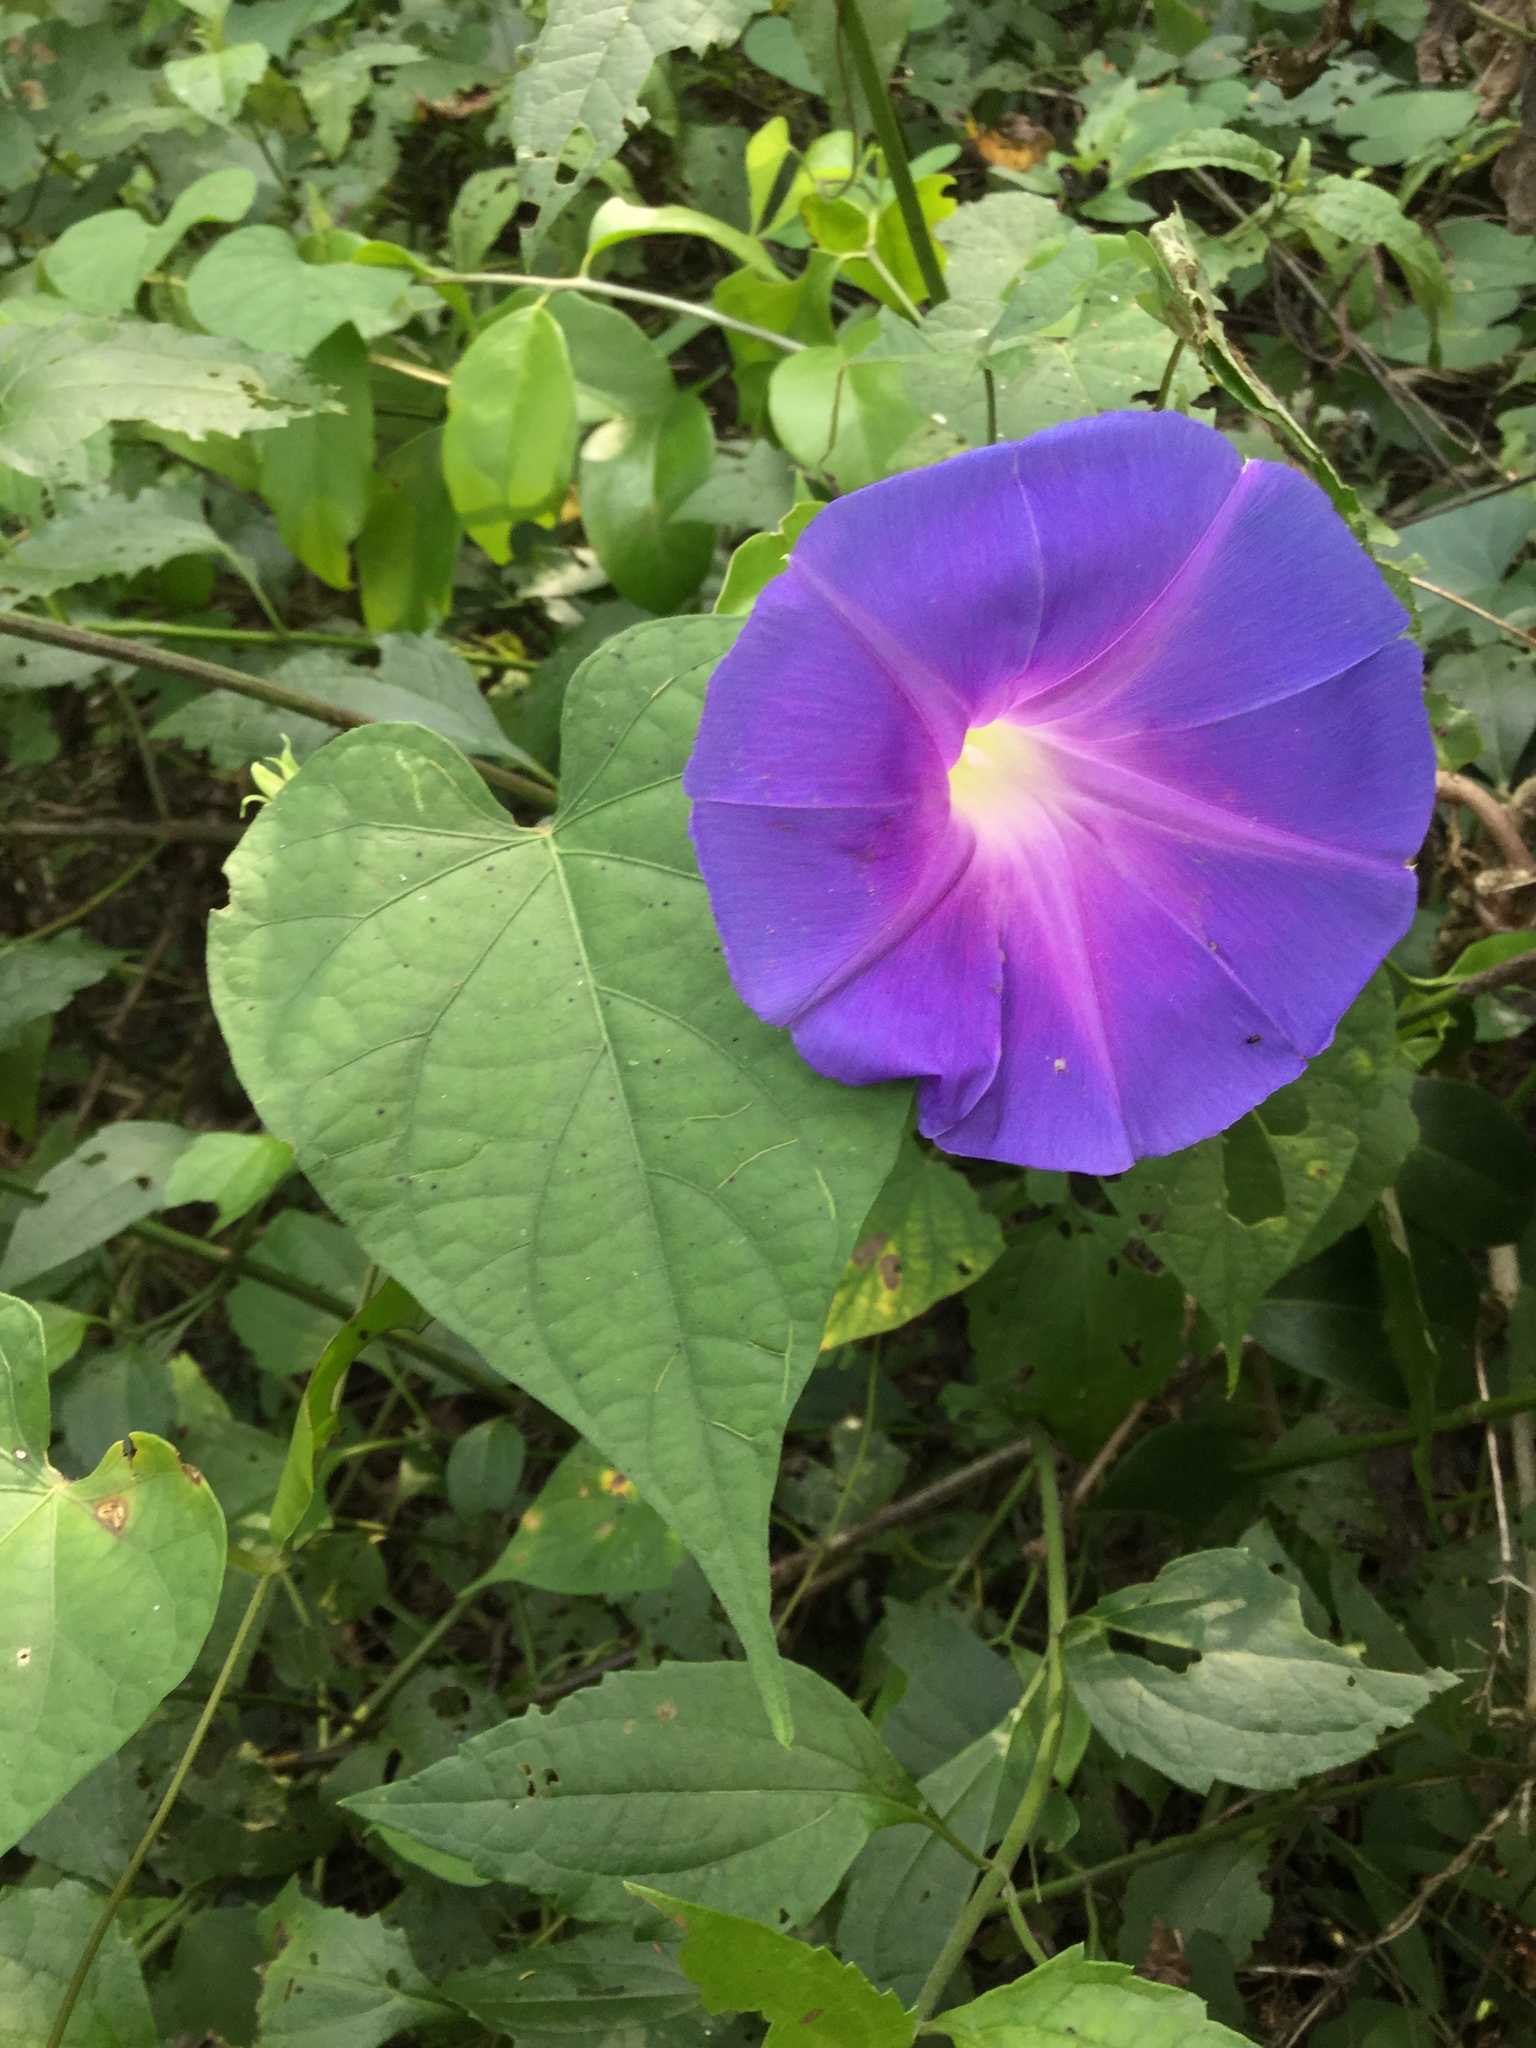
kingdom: Plantae
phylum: Tracheophyta
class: Magnoliopsida
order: Solanales
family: Convolvulaceae
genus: Ipomoea
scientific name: Ipomoea mitchelliae
